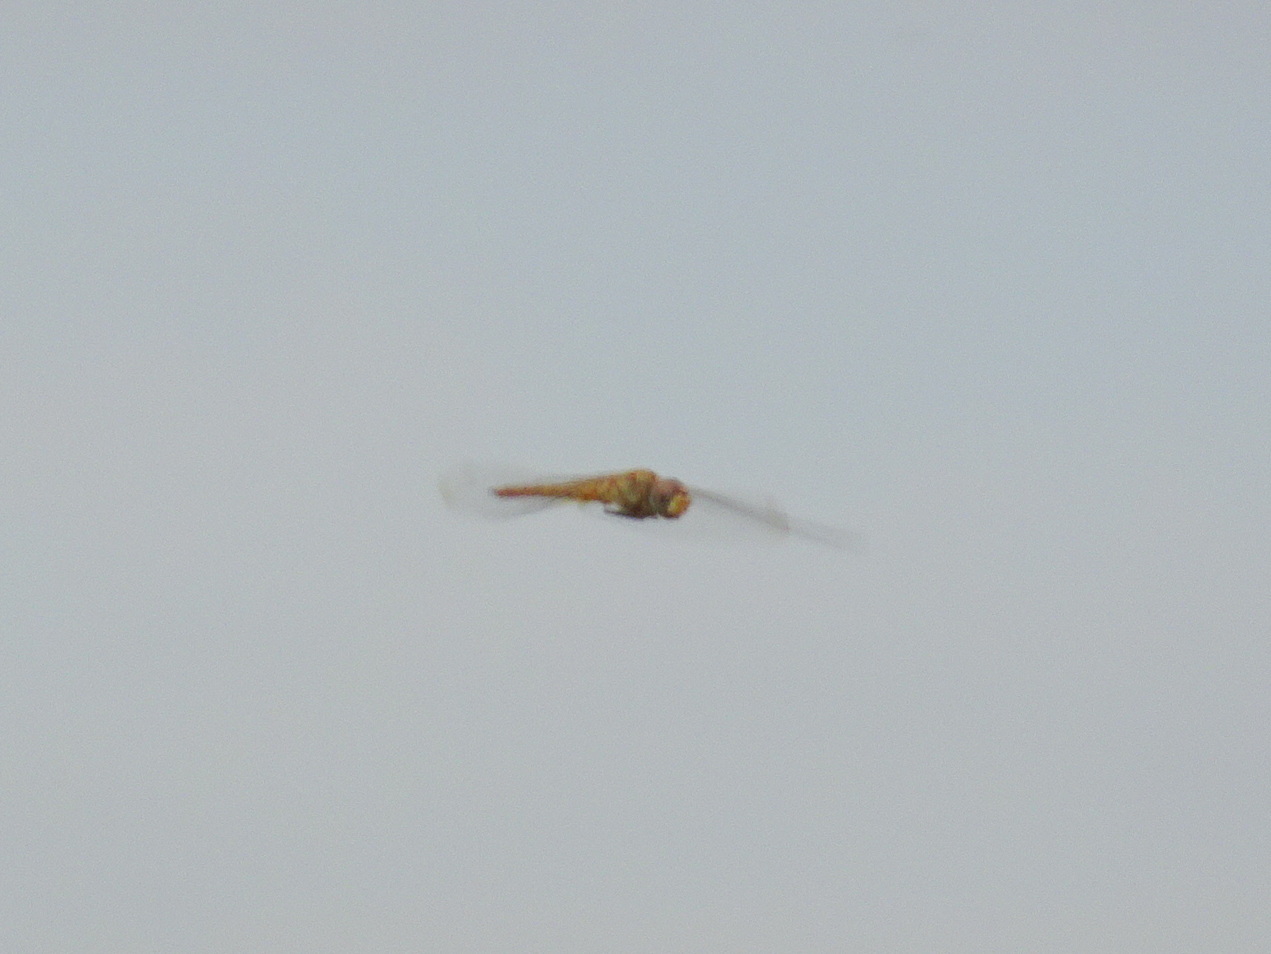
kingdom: Animalia
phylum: Arthropoda
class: Insecta
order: Odonata
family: Libellulidae
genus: Pantala
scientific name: Pantala flavescens
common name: Wandering glider
